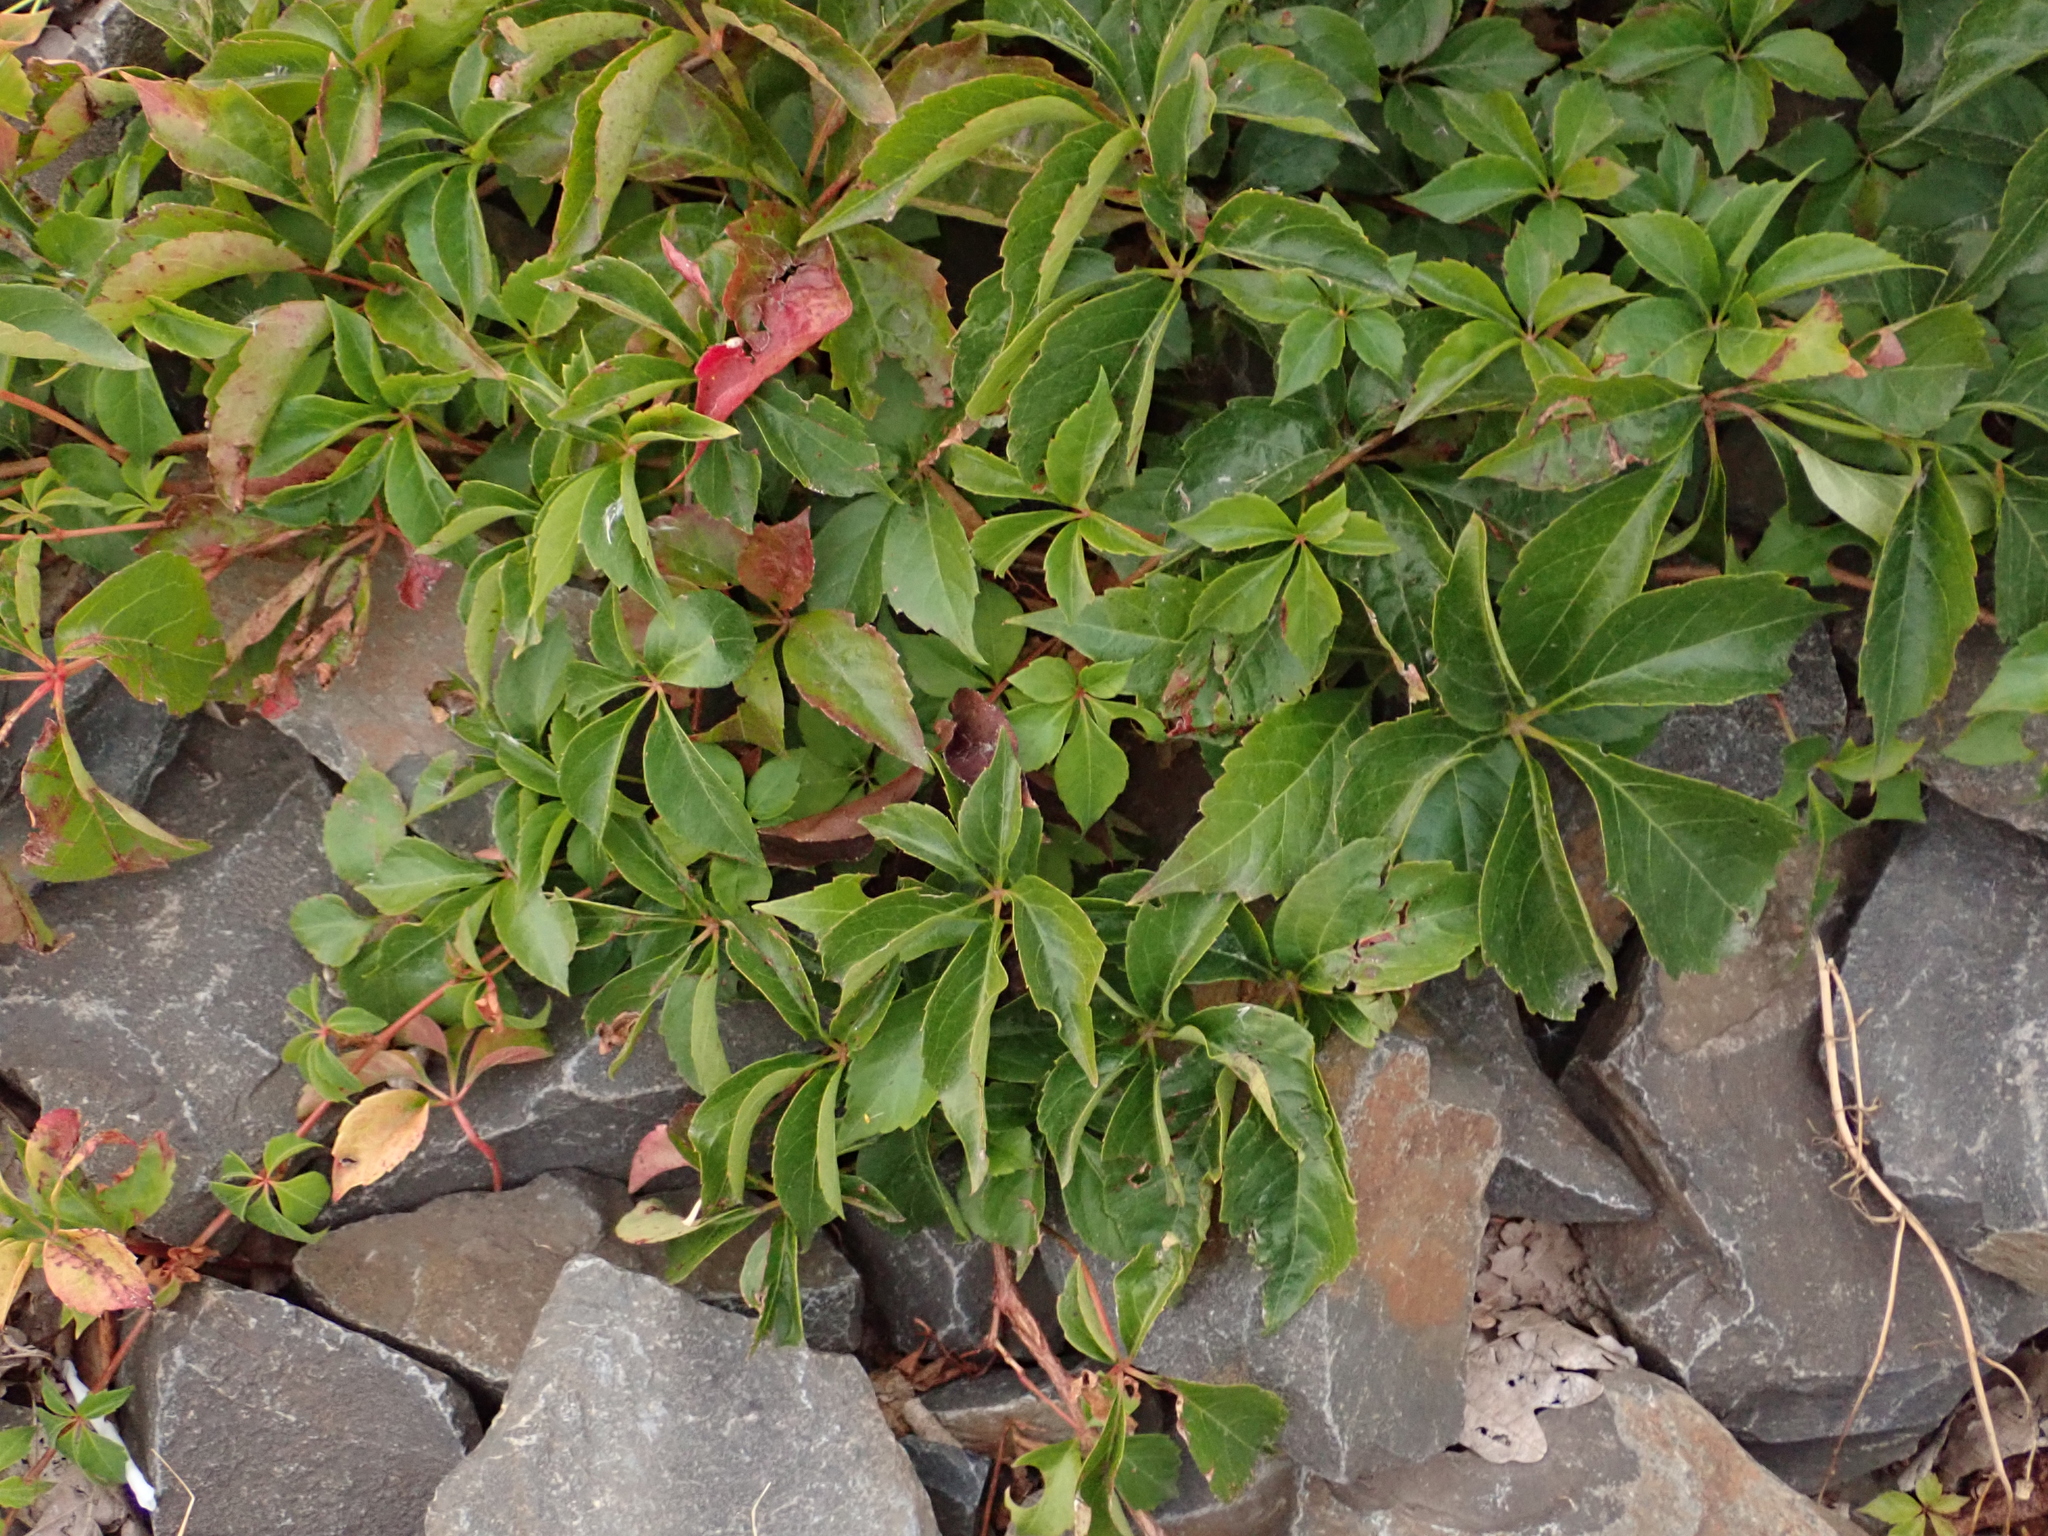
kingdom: Plantae
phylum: Tracheophyta
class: Magnoliopsida
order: Vitales
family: Vitaceae
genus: Parthenocissus
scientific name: Parthenocissus quinquefolia
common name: Virginia-creeper
